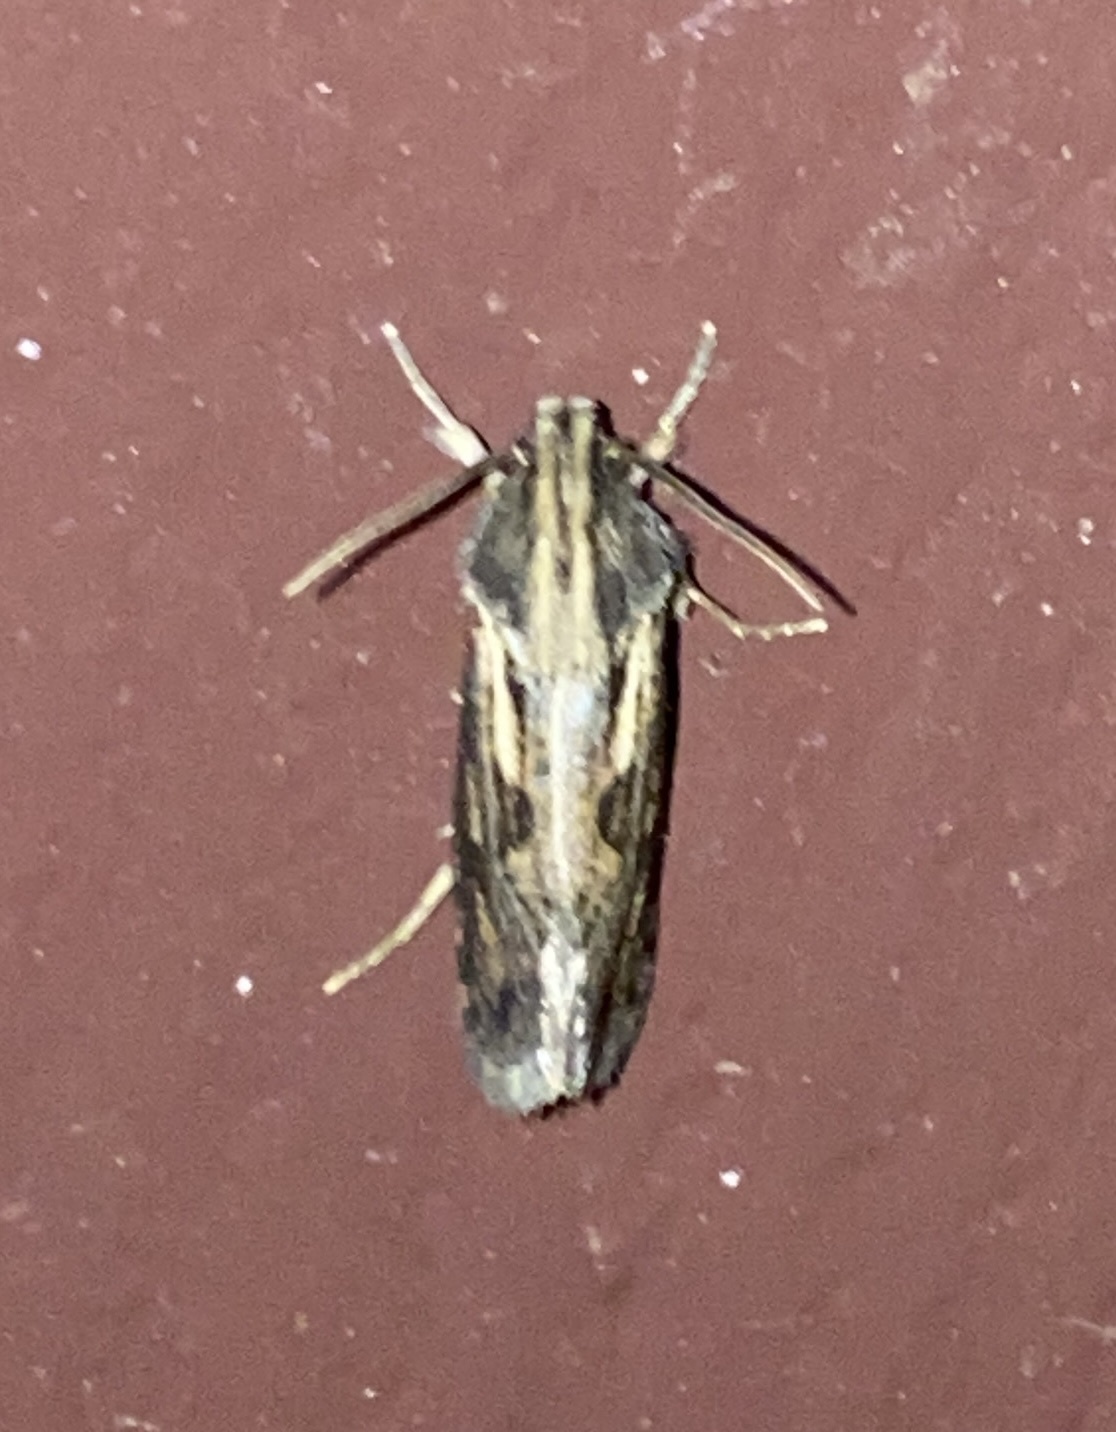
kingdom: Animalia
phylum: Arthropoda
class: Insecta
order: Lepidoptera
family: Tineidae
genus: Acrolophus
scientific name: Acrolophus popeanella
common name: Clemens' grass tubeworm moth
